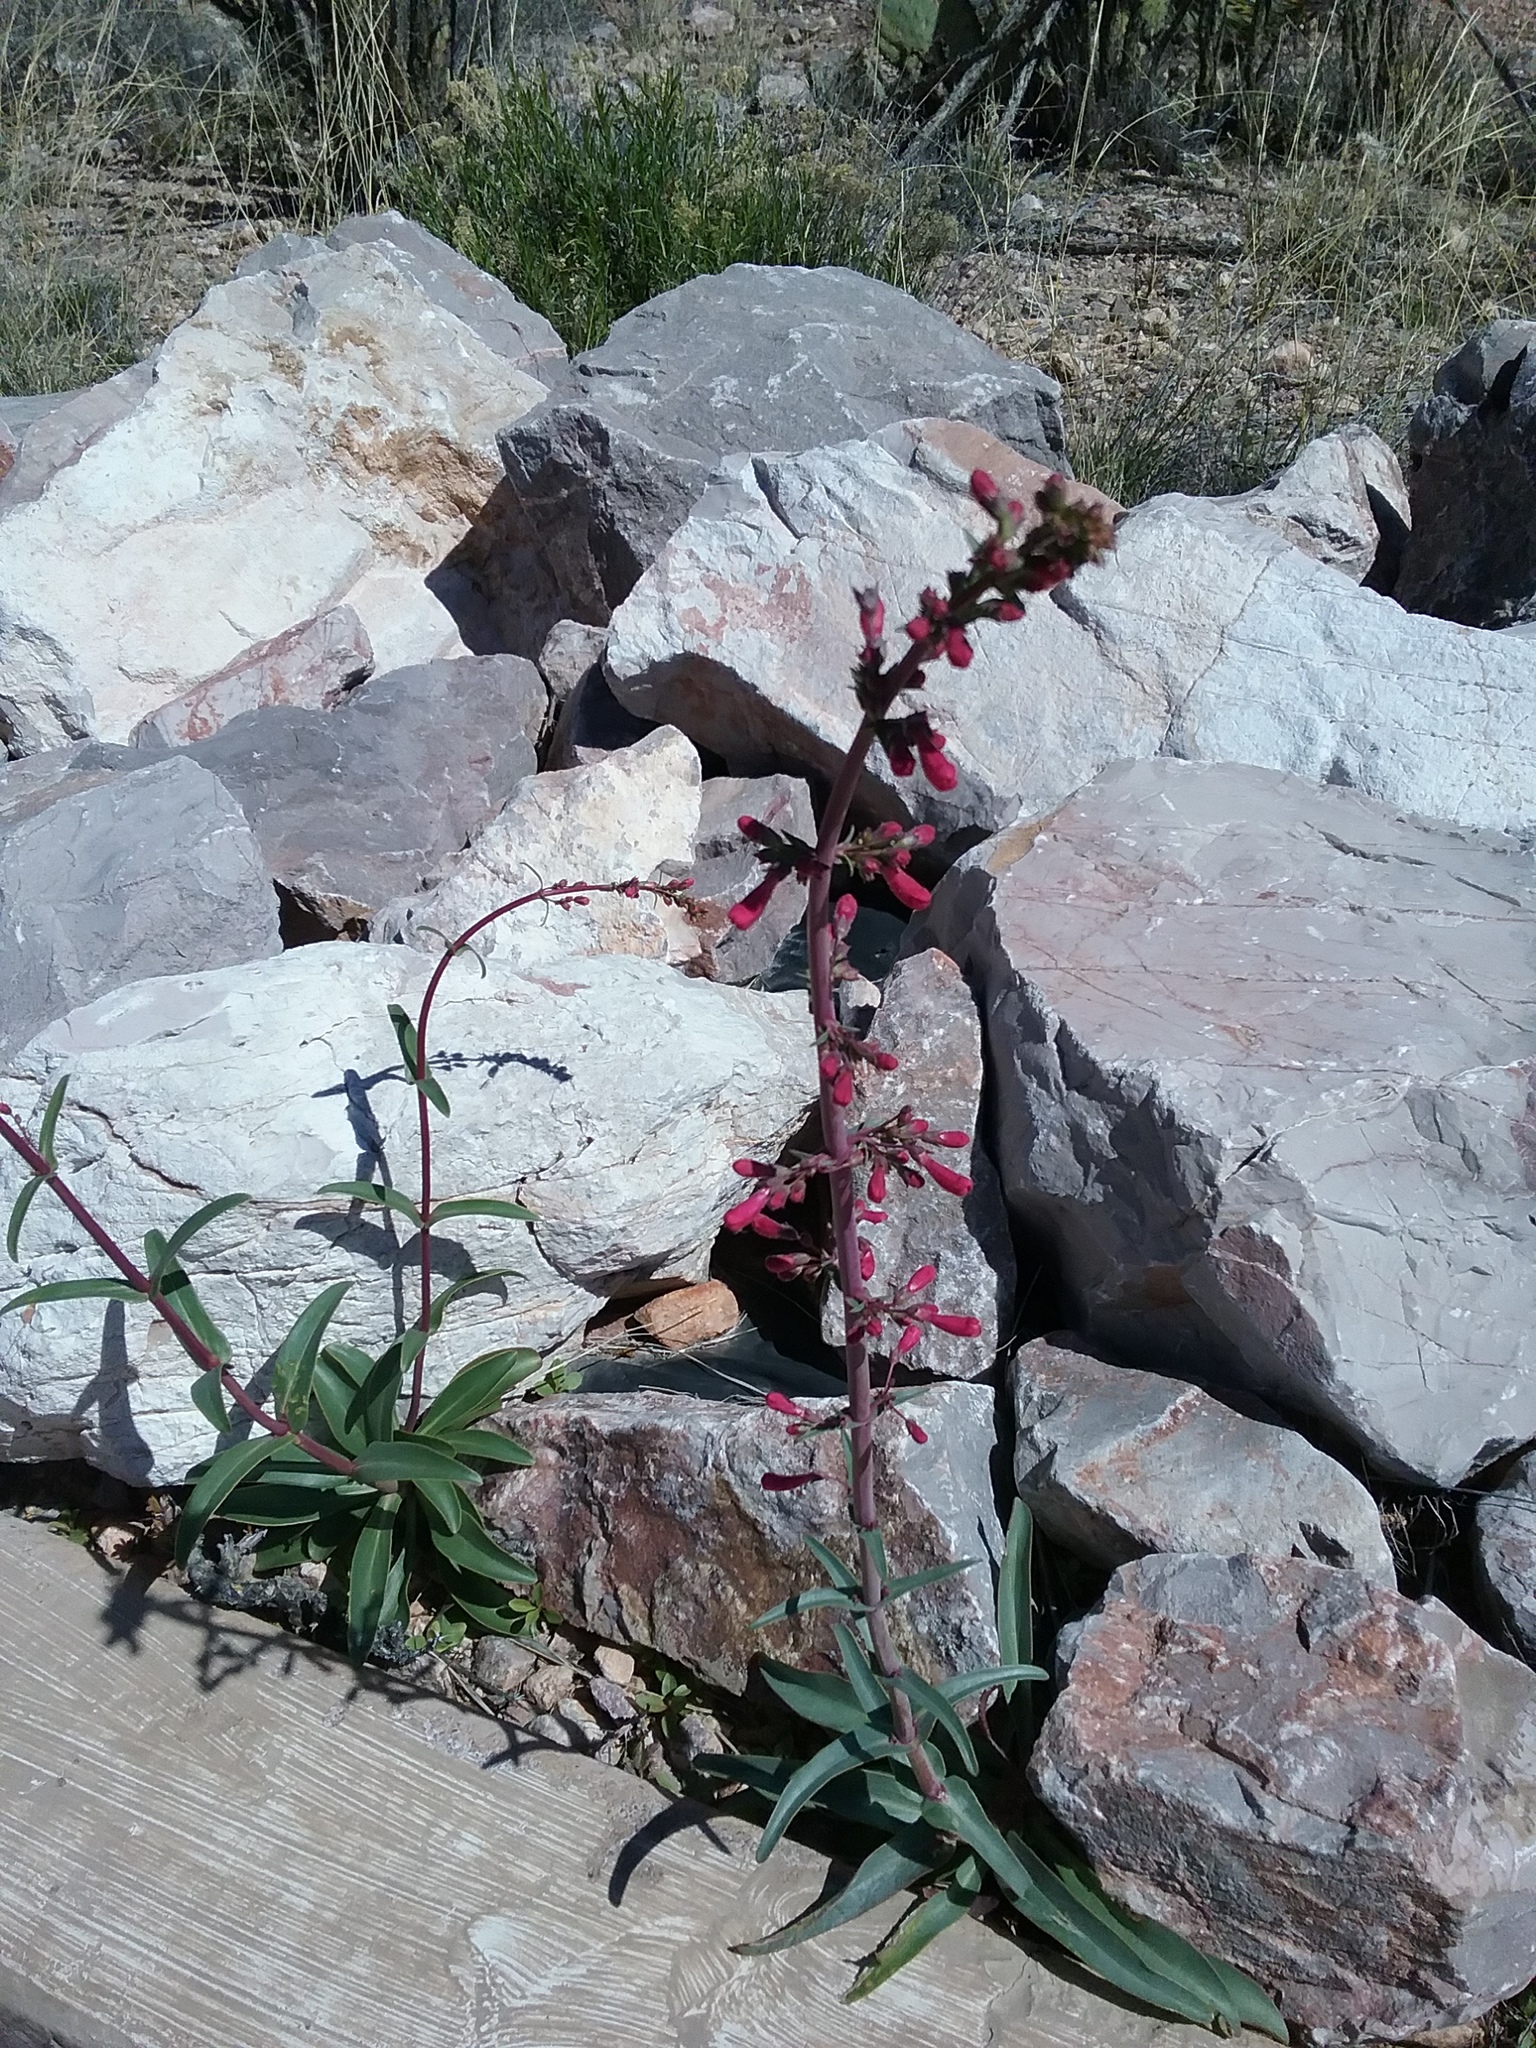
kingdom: Plantae
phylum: Tracheophyta
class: Magnoliopsida
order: Lamiales
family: Plantaginaceae
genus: Penstemon
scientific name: Penstemon parryi
